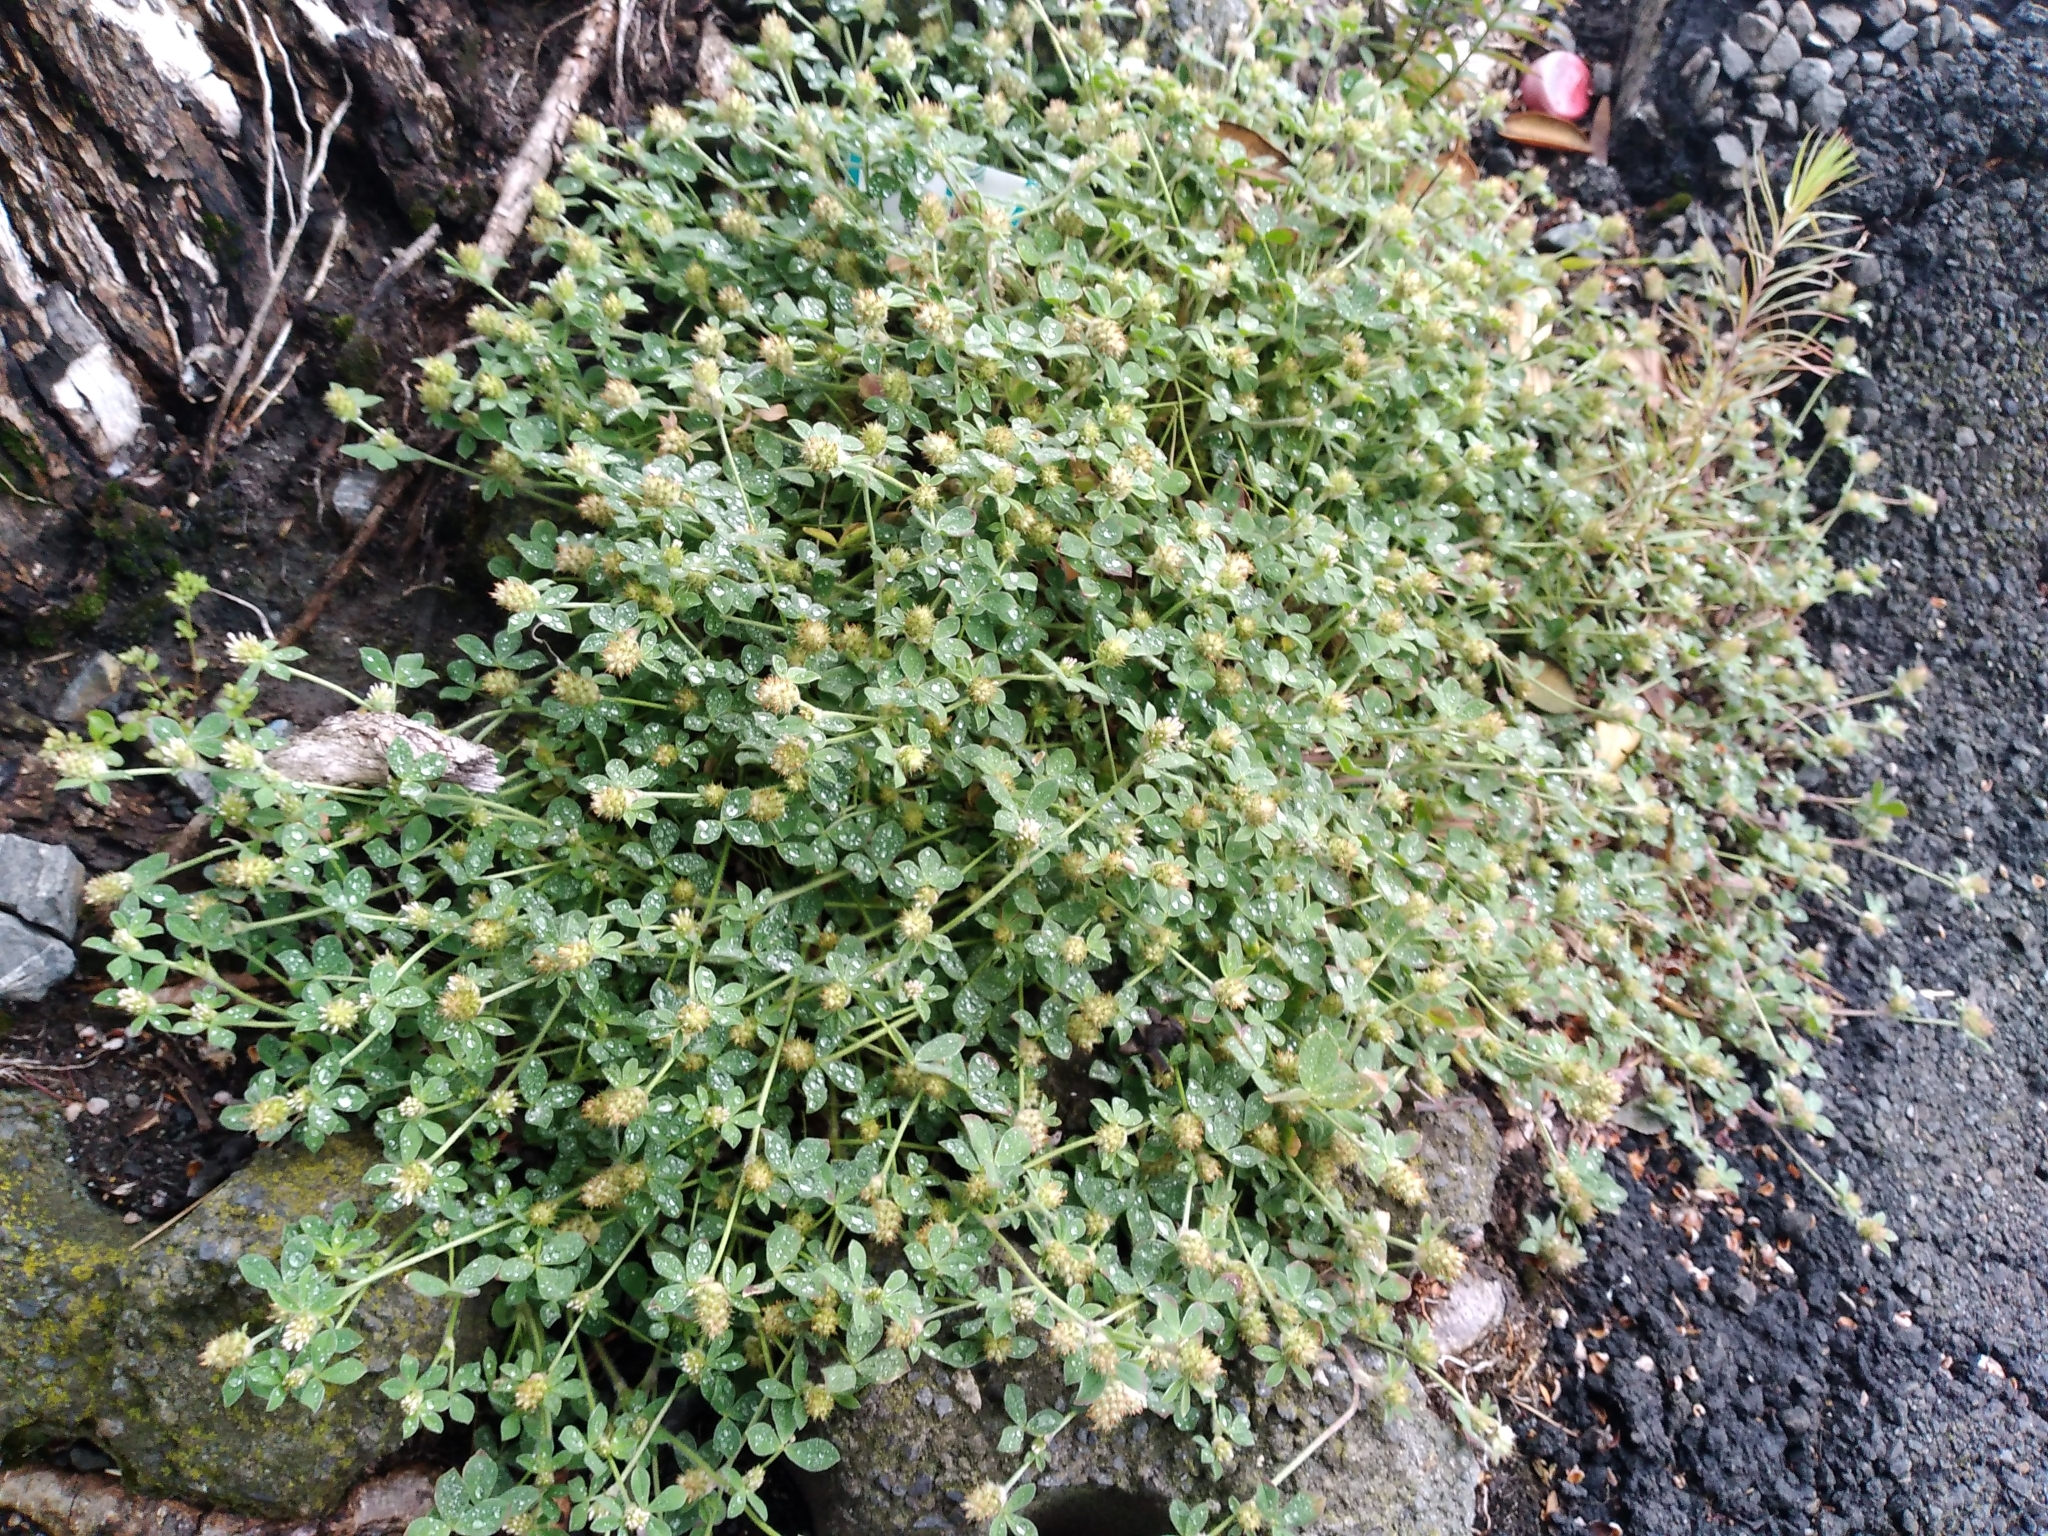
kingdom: Plantae
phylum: Tracheophyta
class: Magnoliopsida
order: Fabales
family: Fabaceae
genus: Trifolium
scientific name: Trifolium striatum
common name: Knotted clover
